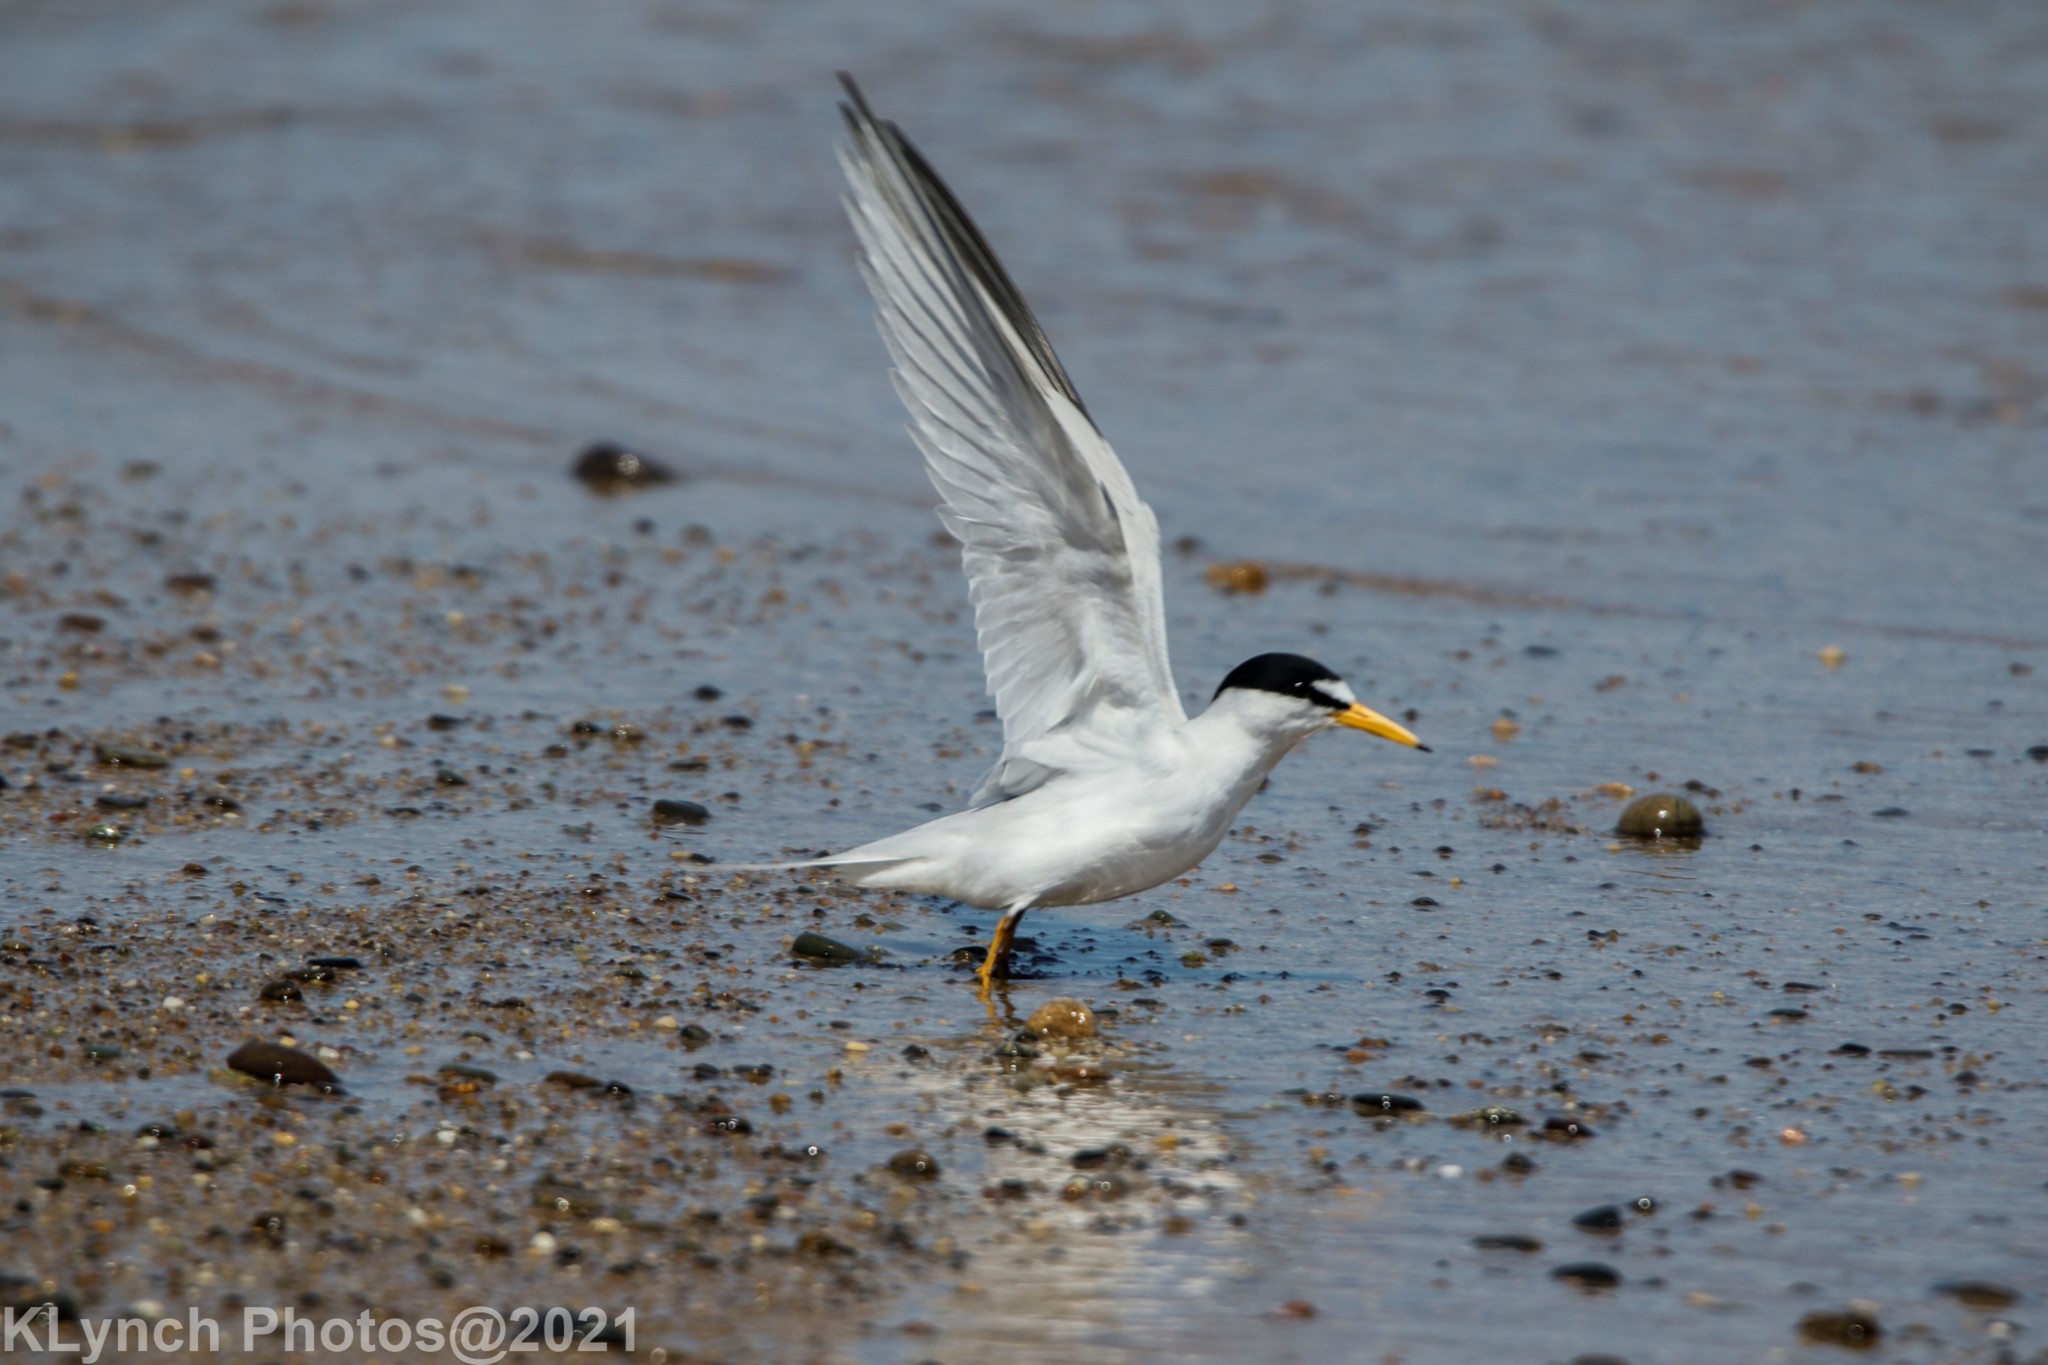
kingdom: Animalia
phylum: Chordata
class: Aves
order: Charadriiformes
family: Laridae
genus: Sternula
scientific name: Sternula antillarum
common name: Least tern
